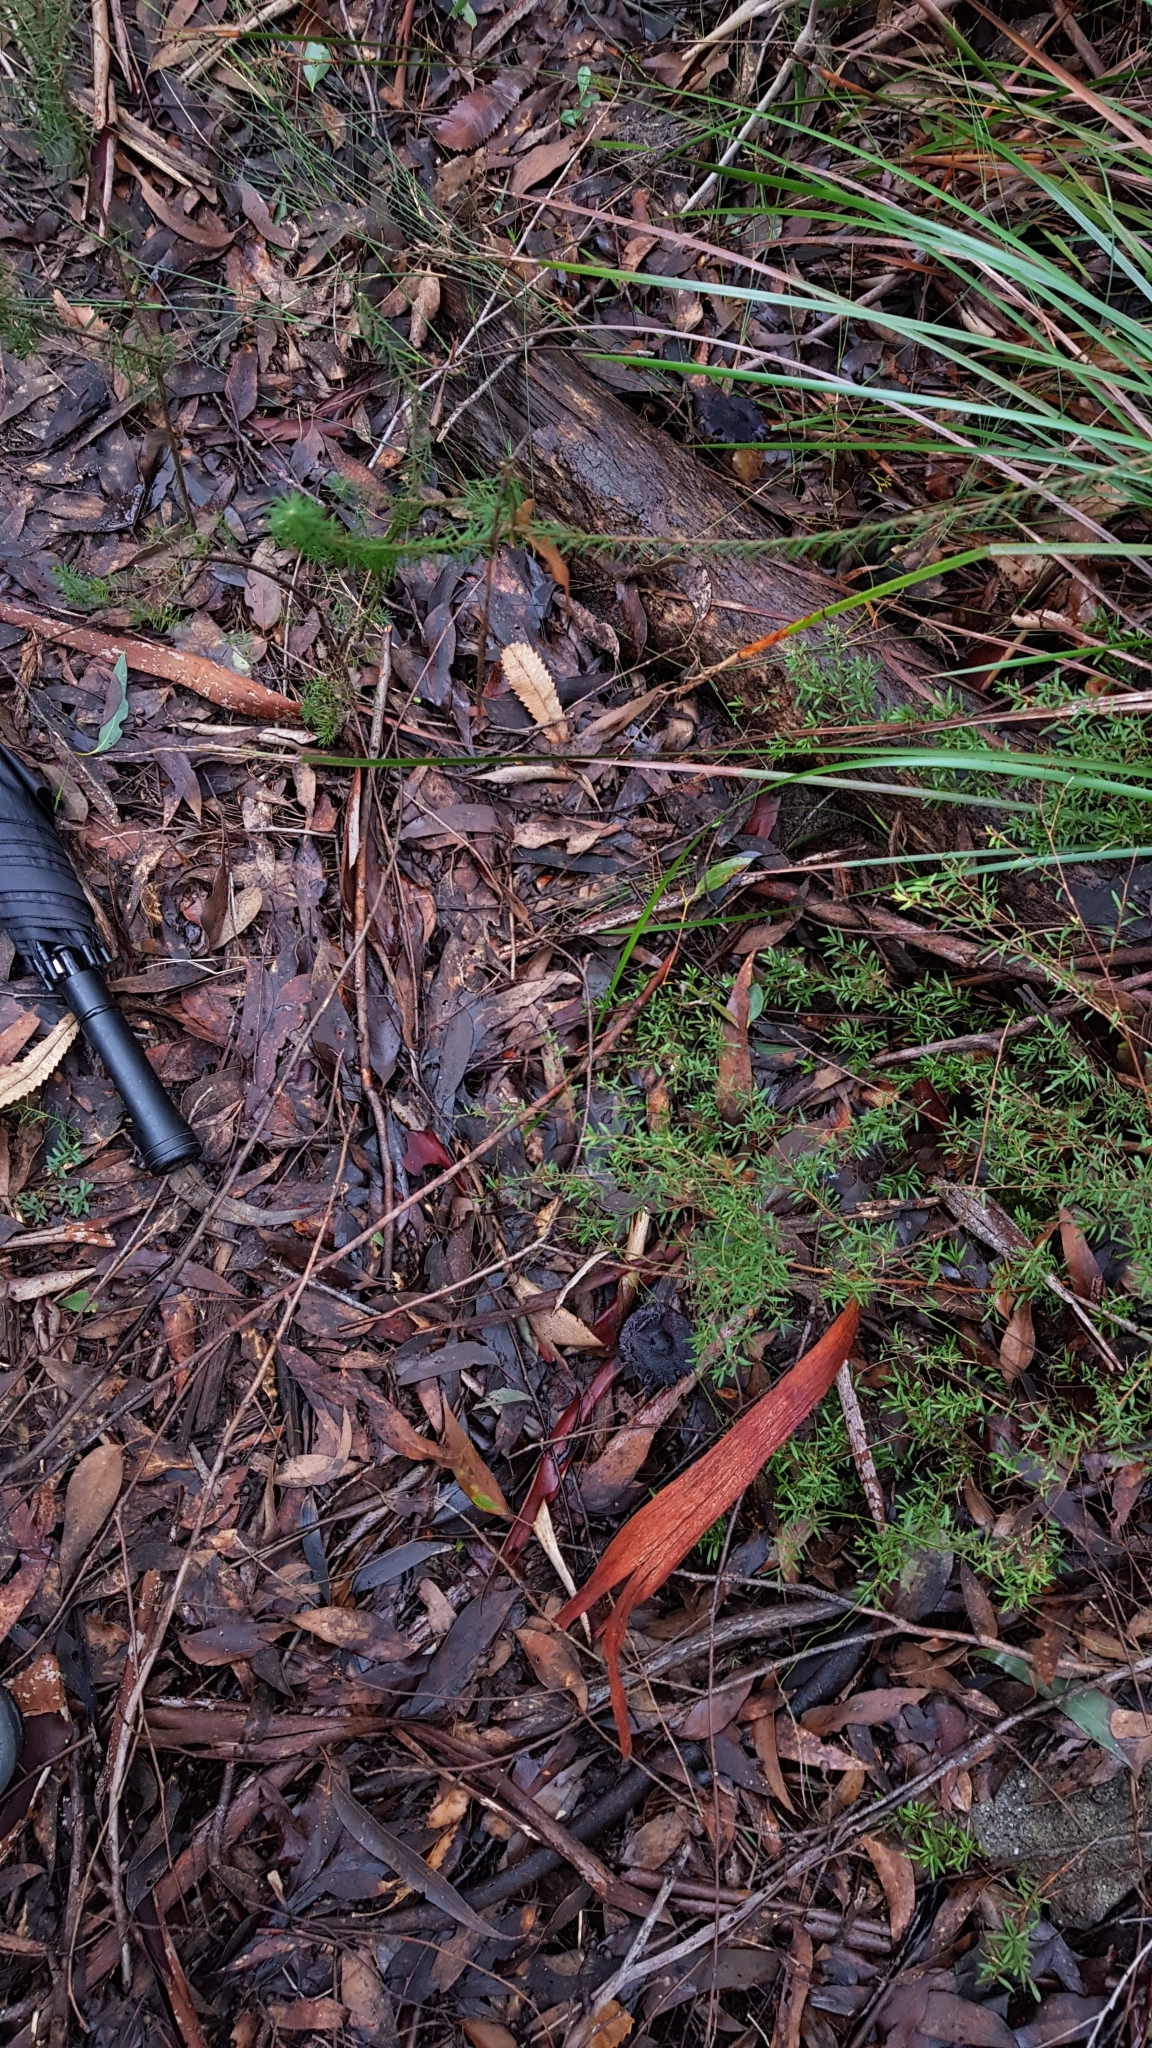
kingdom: Fungi
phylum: Basidiomycota
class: Agaricomycetes
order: Agaricales
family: Cortinariaceae
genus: Cortinarius
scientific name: Cortinarius kioloensis
